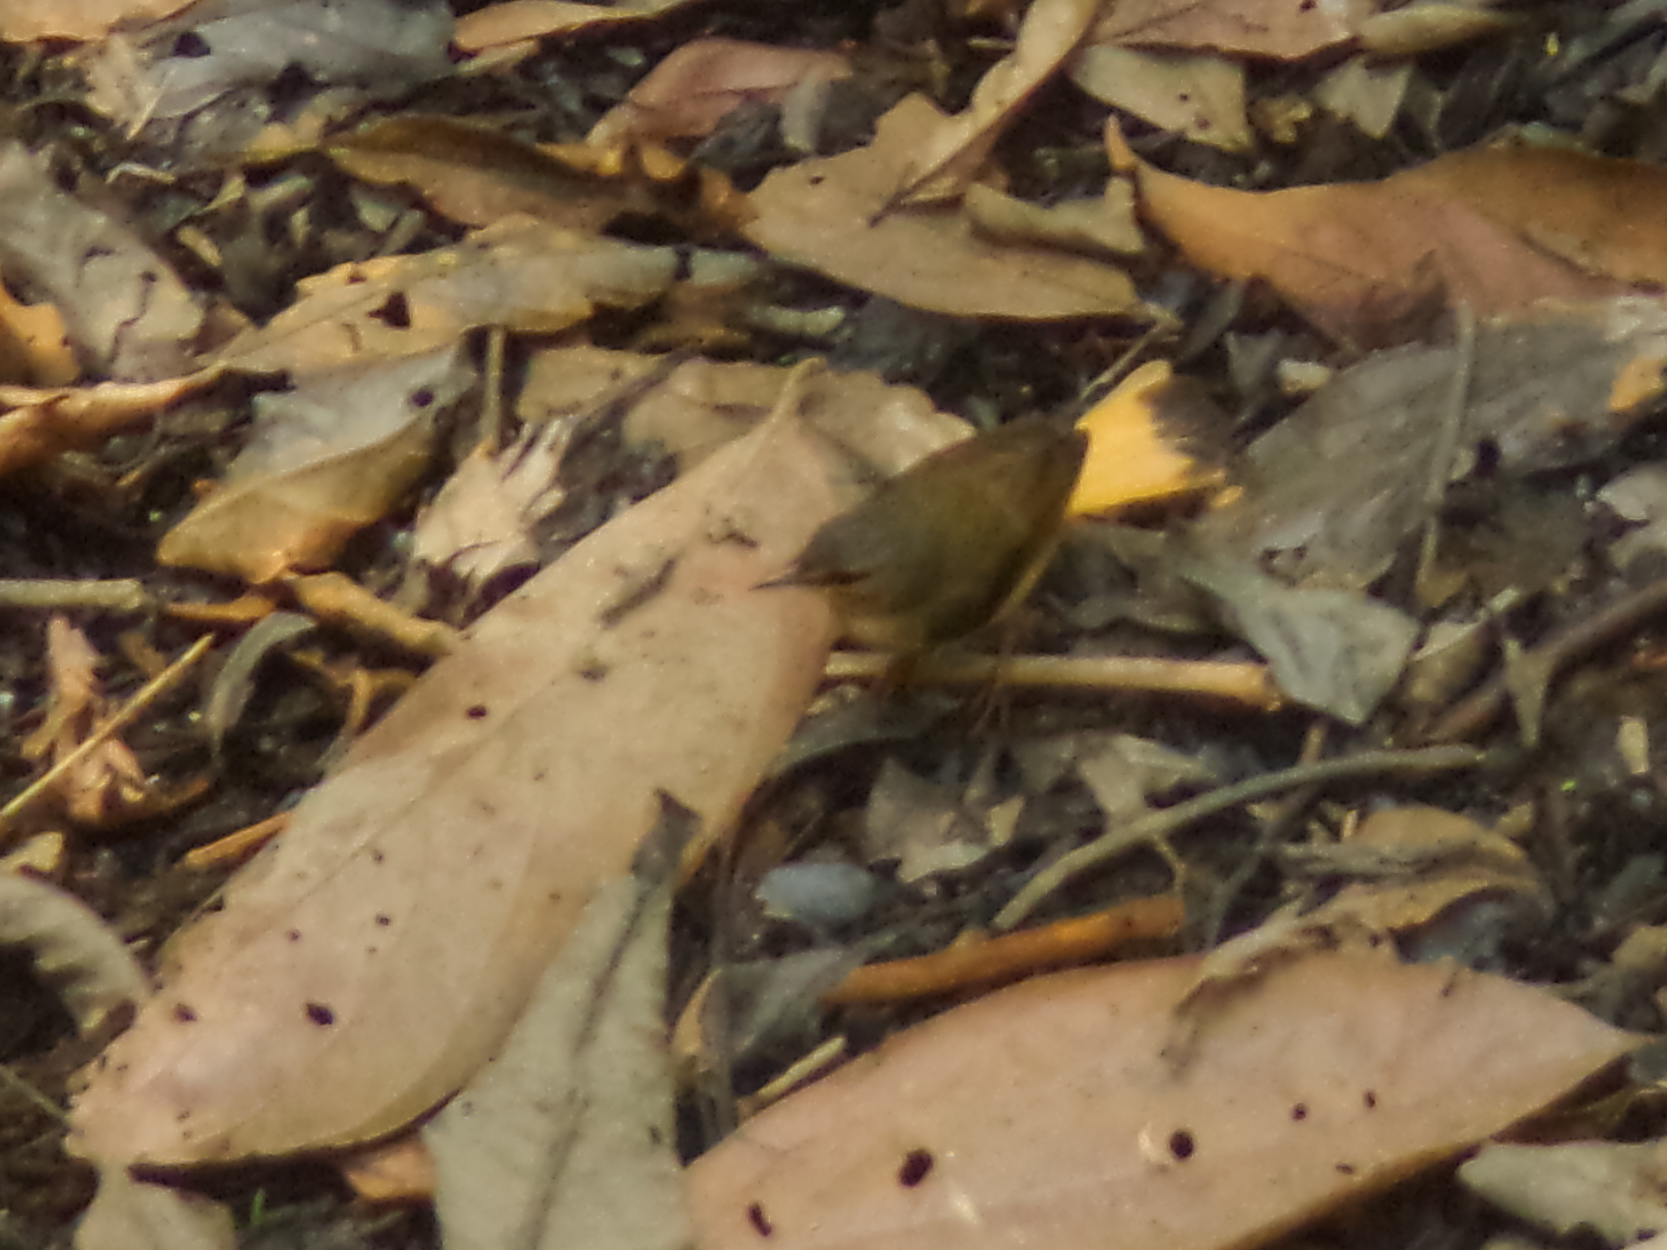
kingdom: Animalia
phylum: Chordata
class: Aves
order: Passeriformes
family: Parulidae
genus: Myiothlypis
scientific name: Myiothlypis fulvicauda
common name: Buff-rumped warbler
